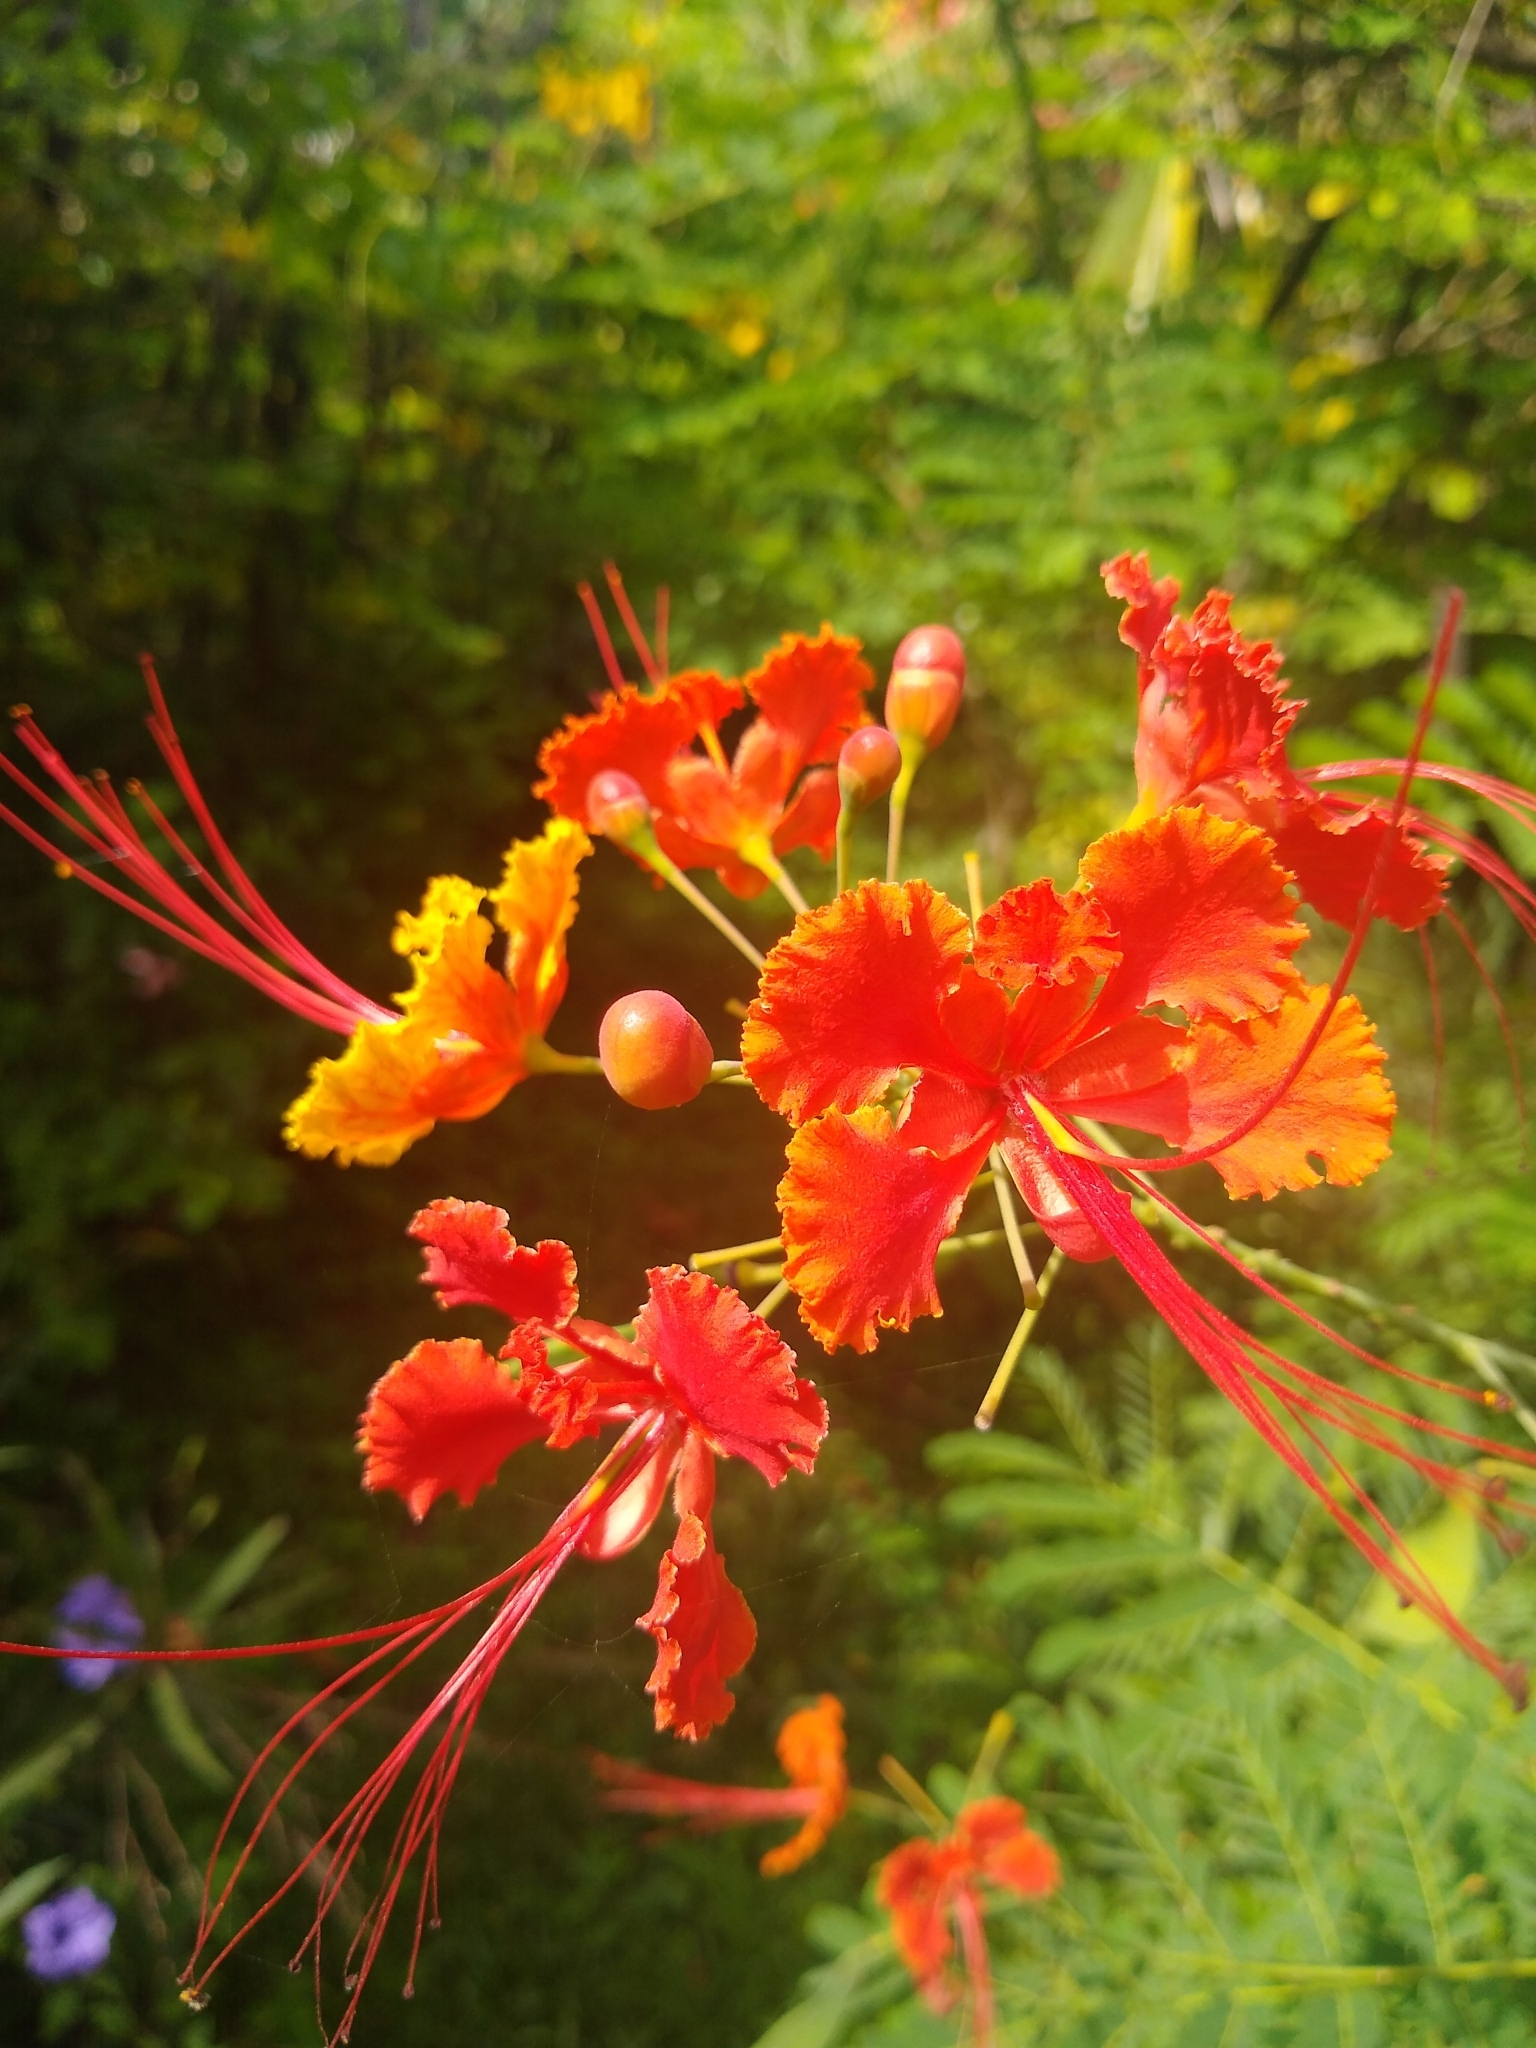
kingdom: Plantae
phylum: Tracheophyta
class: Magnoliopsida
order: Fabales
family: Fabaceae
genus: Caesalpinia
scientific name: Caesalpinia pulcherrima
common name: Pride-of-barbados
